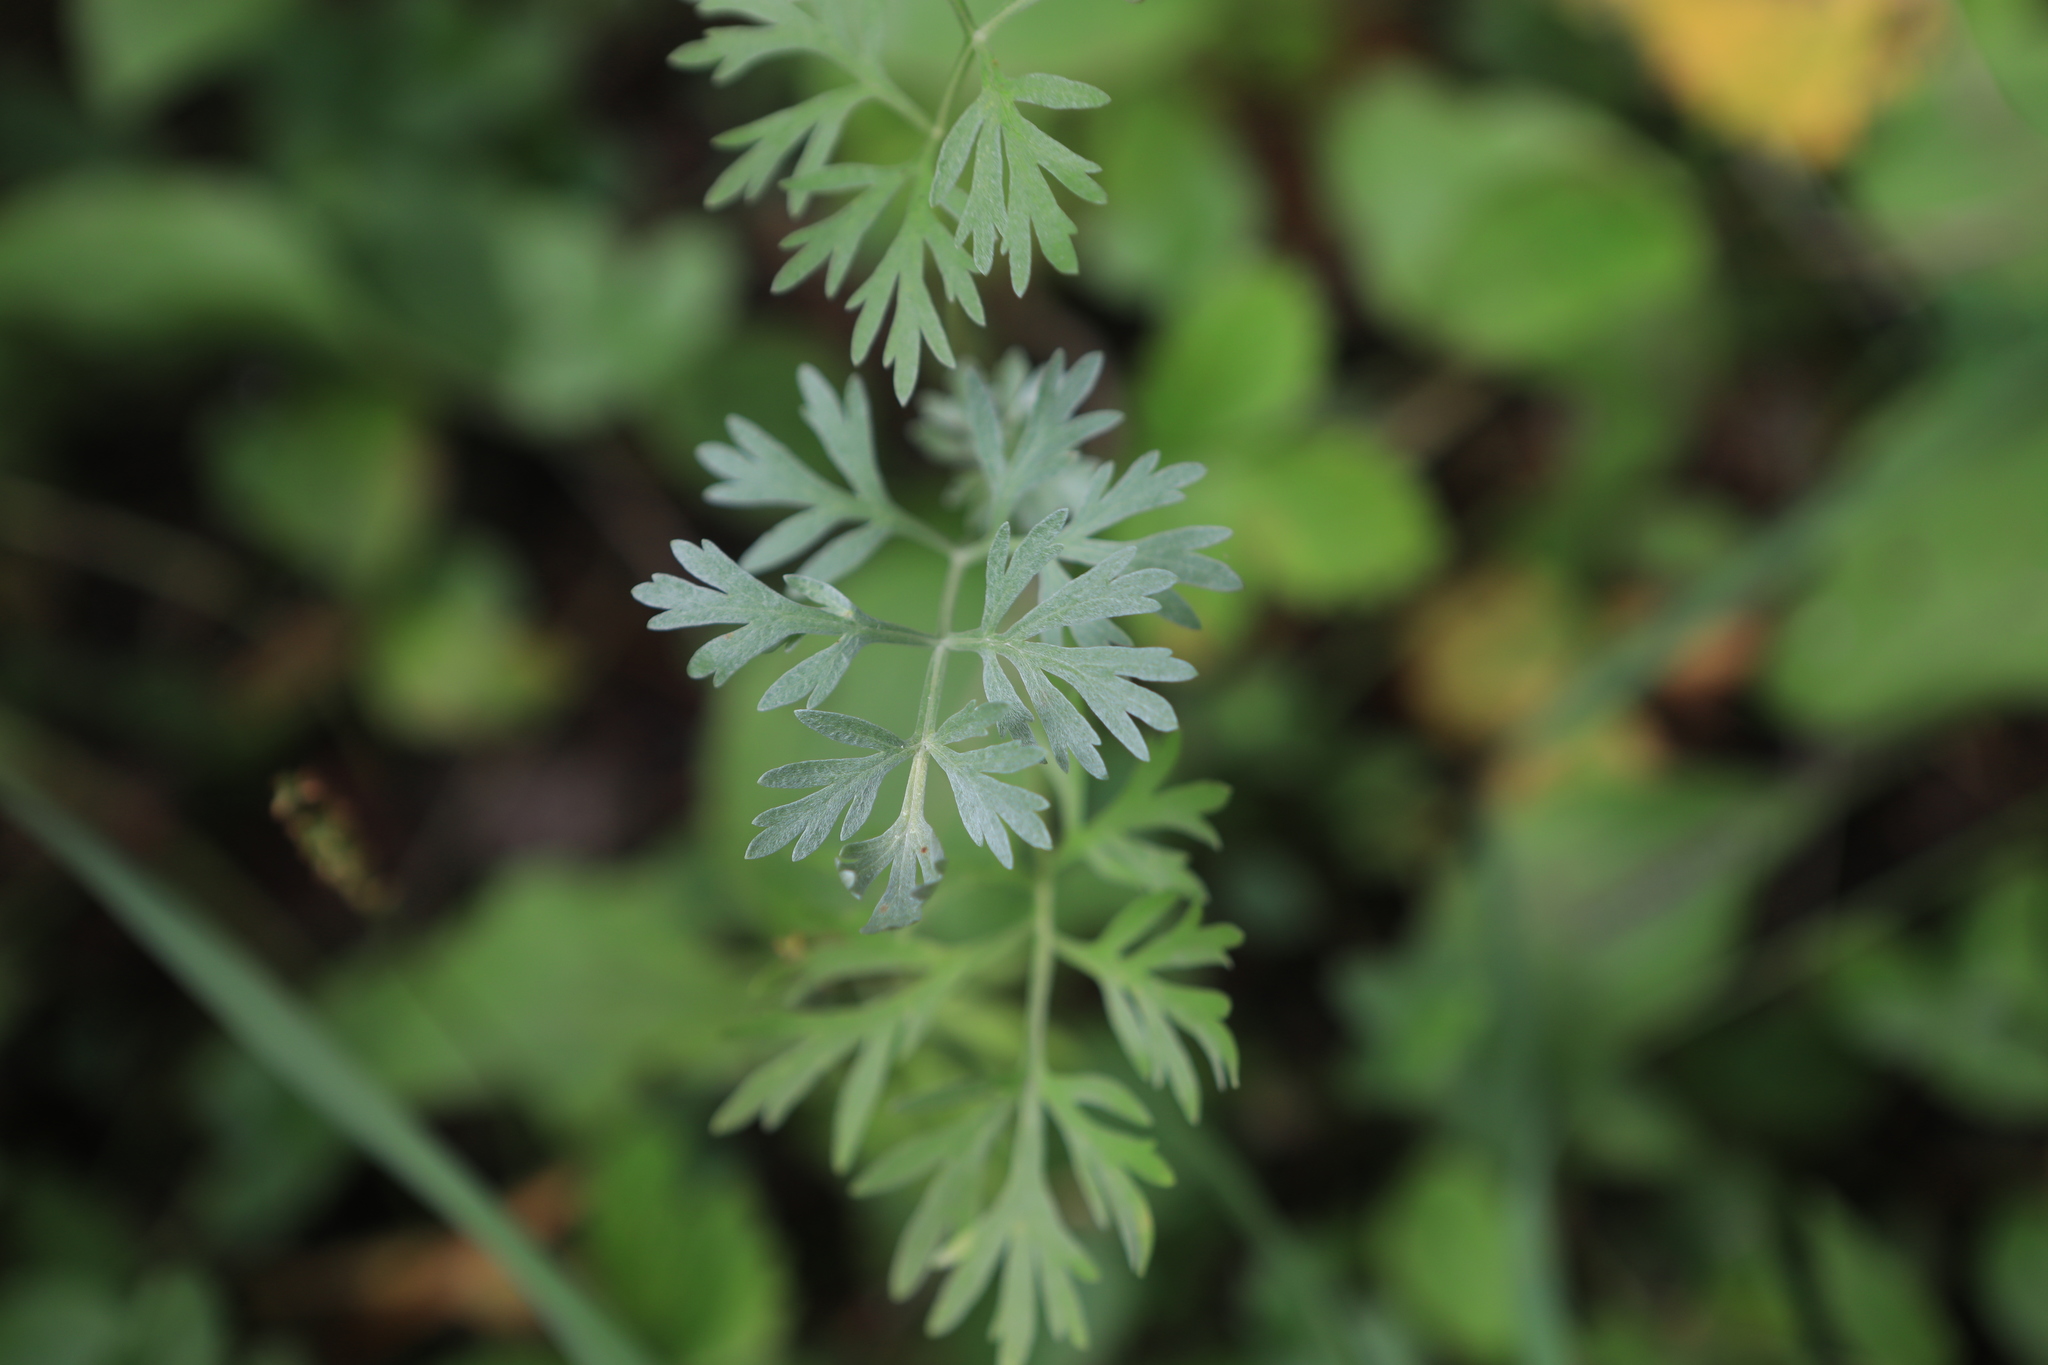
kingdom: Plantae
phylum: Tracheophyta
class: Magnoliopsida
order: Apiales
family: Apiaceae
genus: Coriandrum
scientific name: Coriandrum sativum
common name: Coriander
